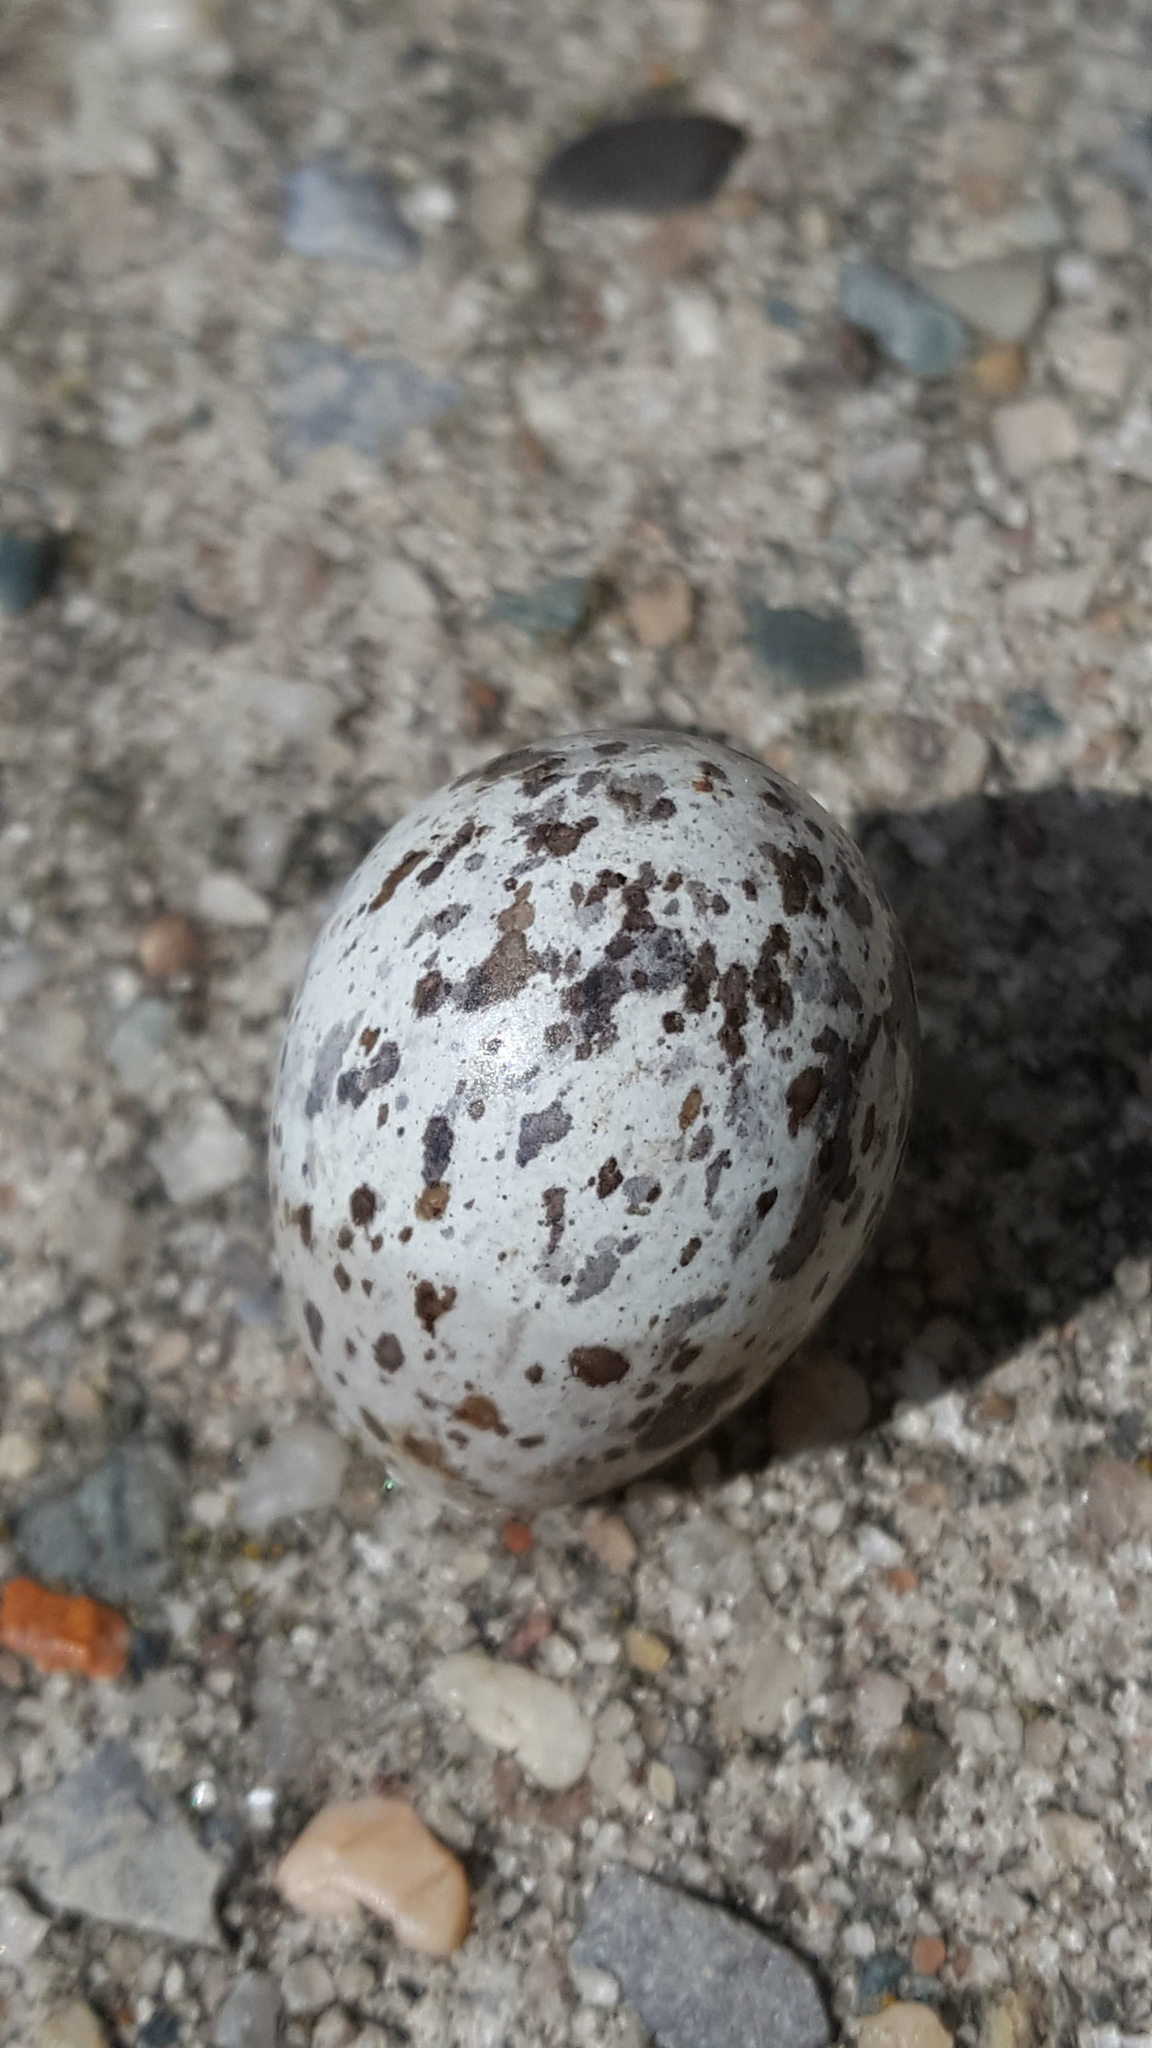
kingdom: Animalia
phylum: Chordata
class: Aves
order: Passeriformes
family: Passeridae
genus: Passer
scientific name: Passer domesticus
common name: House sparrow
